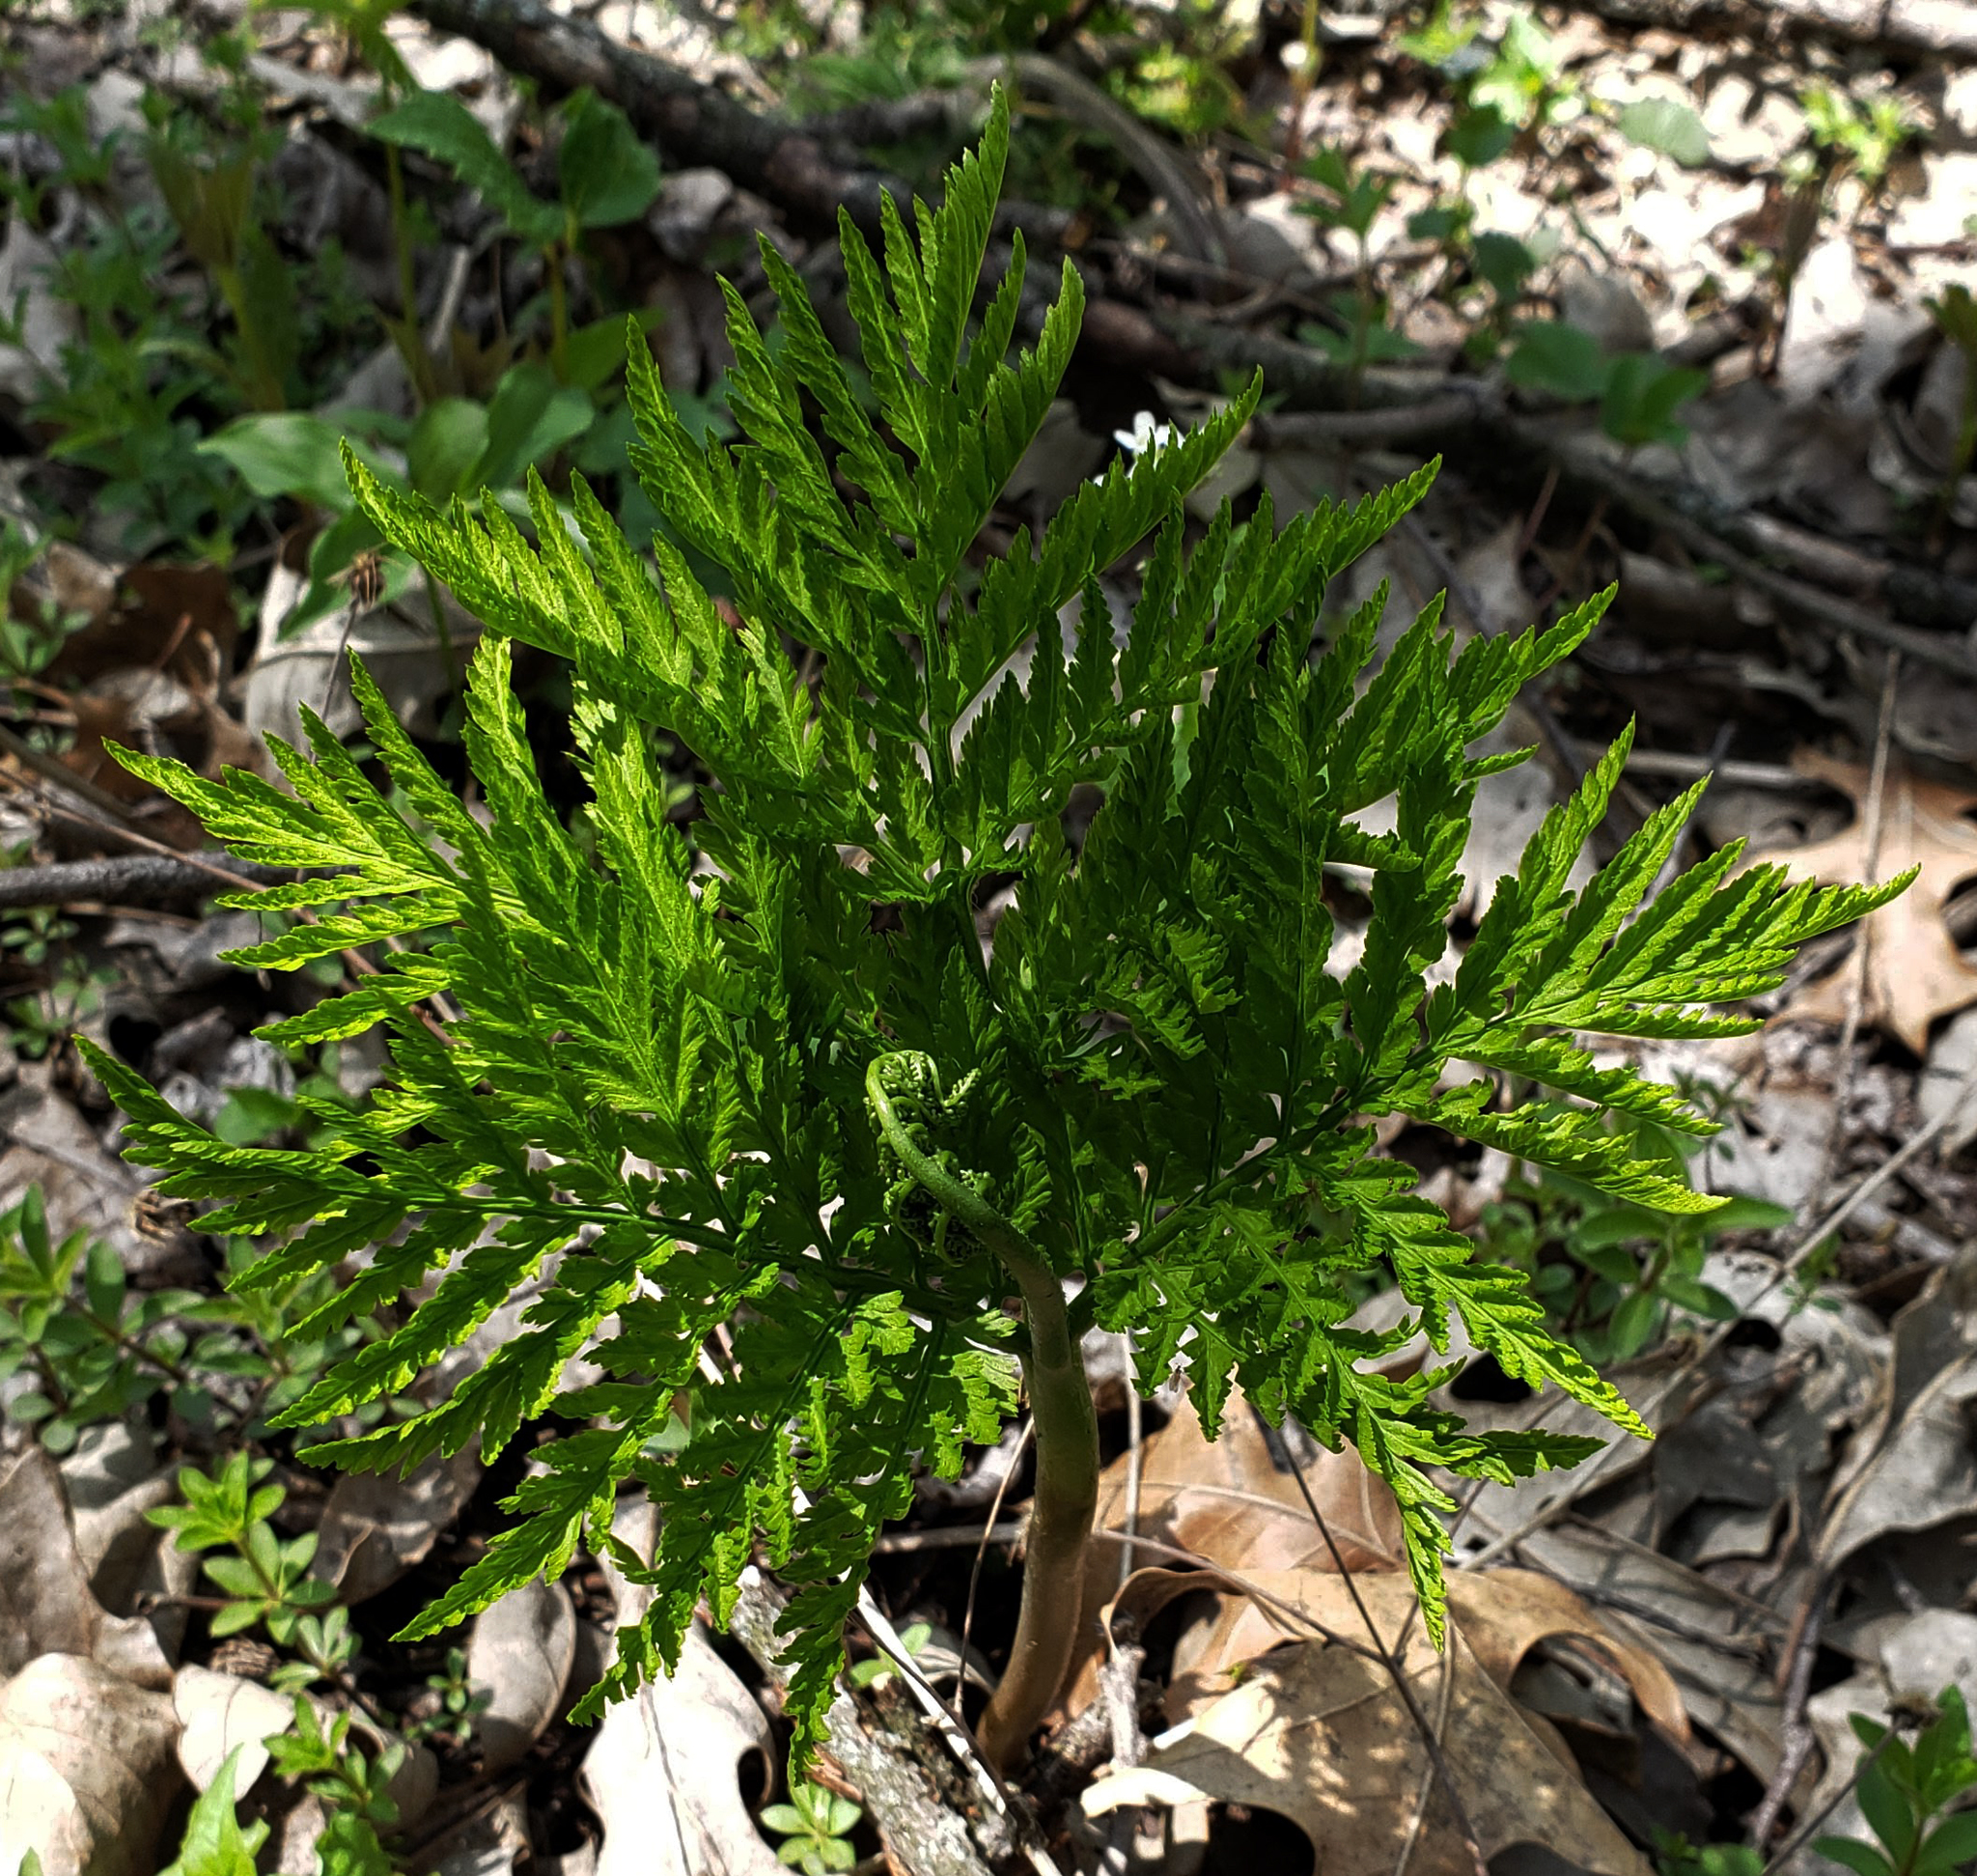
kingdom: Plantae
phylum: Tracheophyta
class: Polypodiopsida
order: Ophioglossales
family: Ophioglossaceae
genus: Botrypus
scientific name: Botrypus virginianus
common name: Common grapefern
